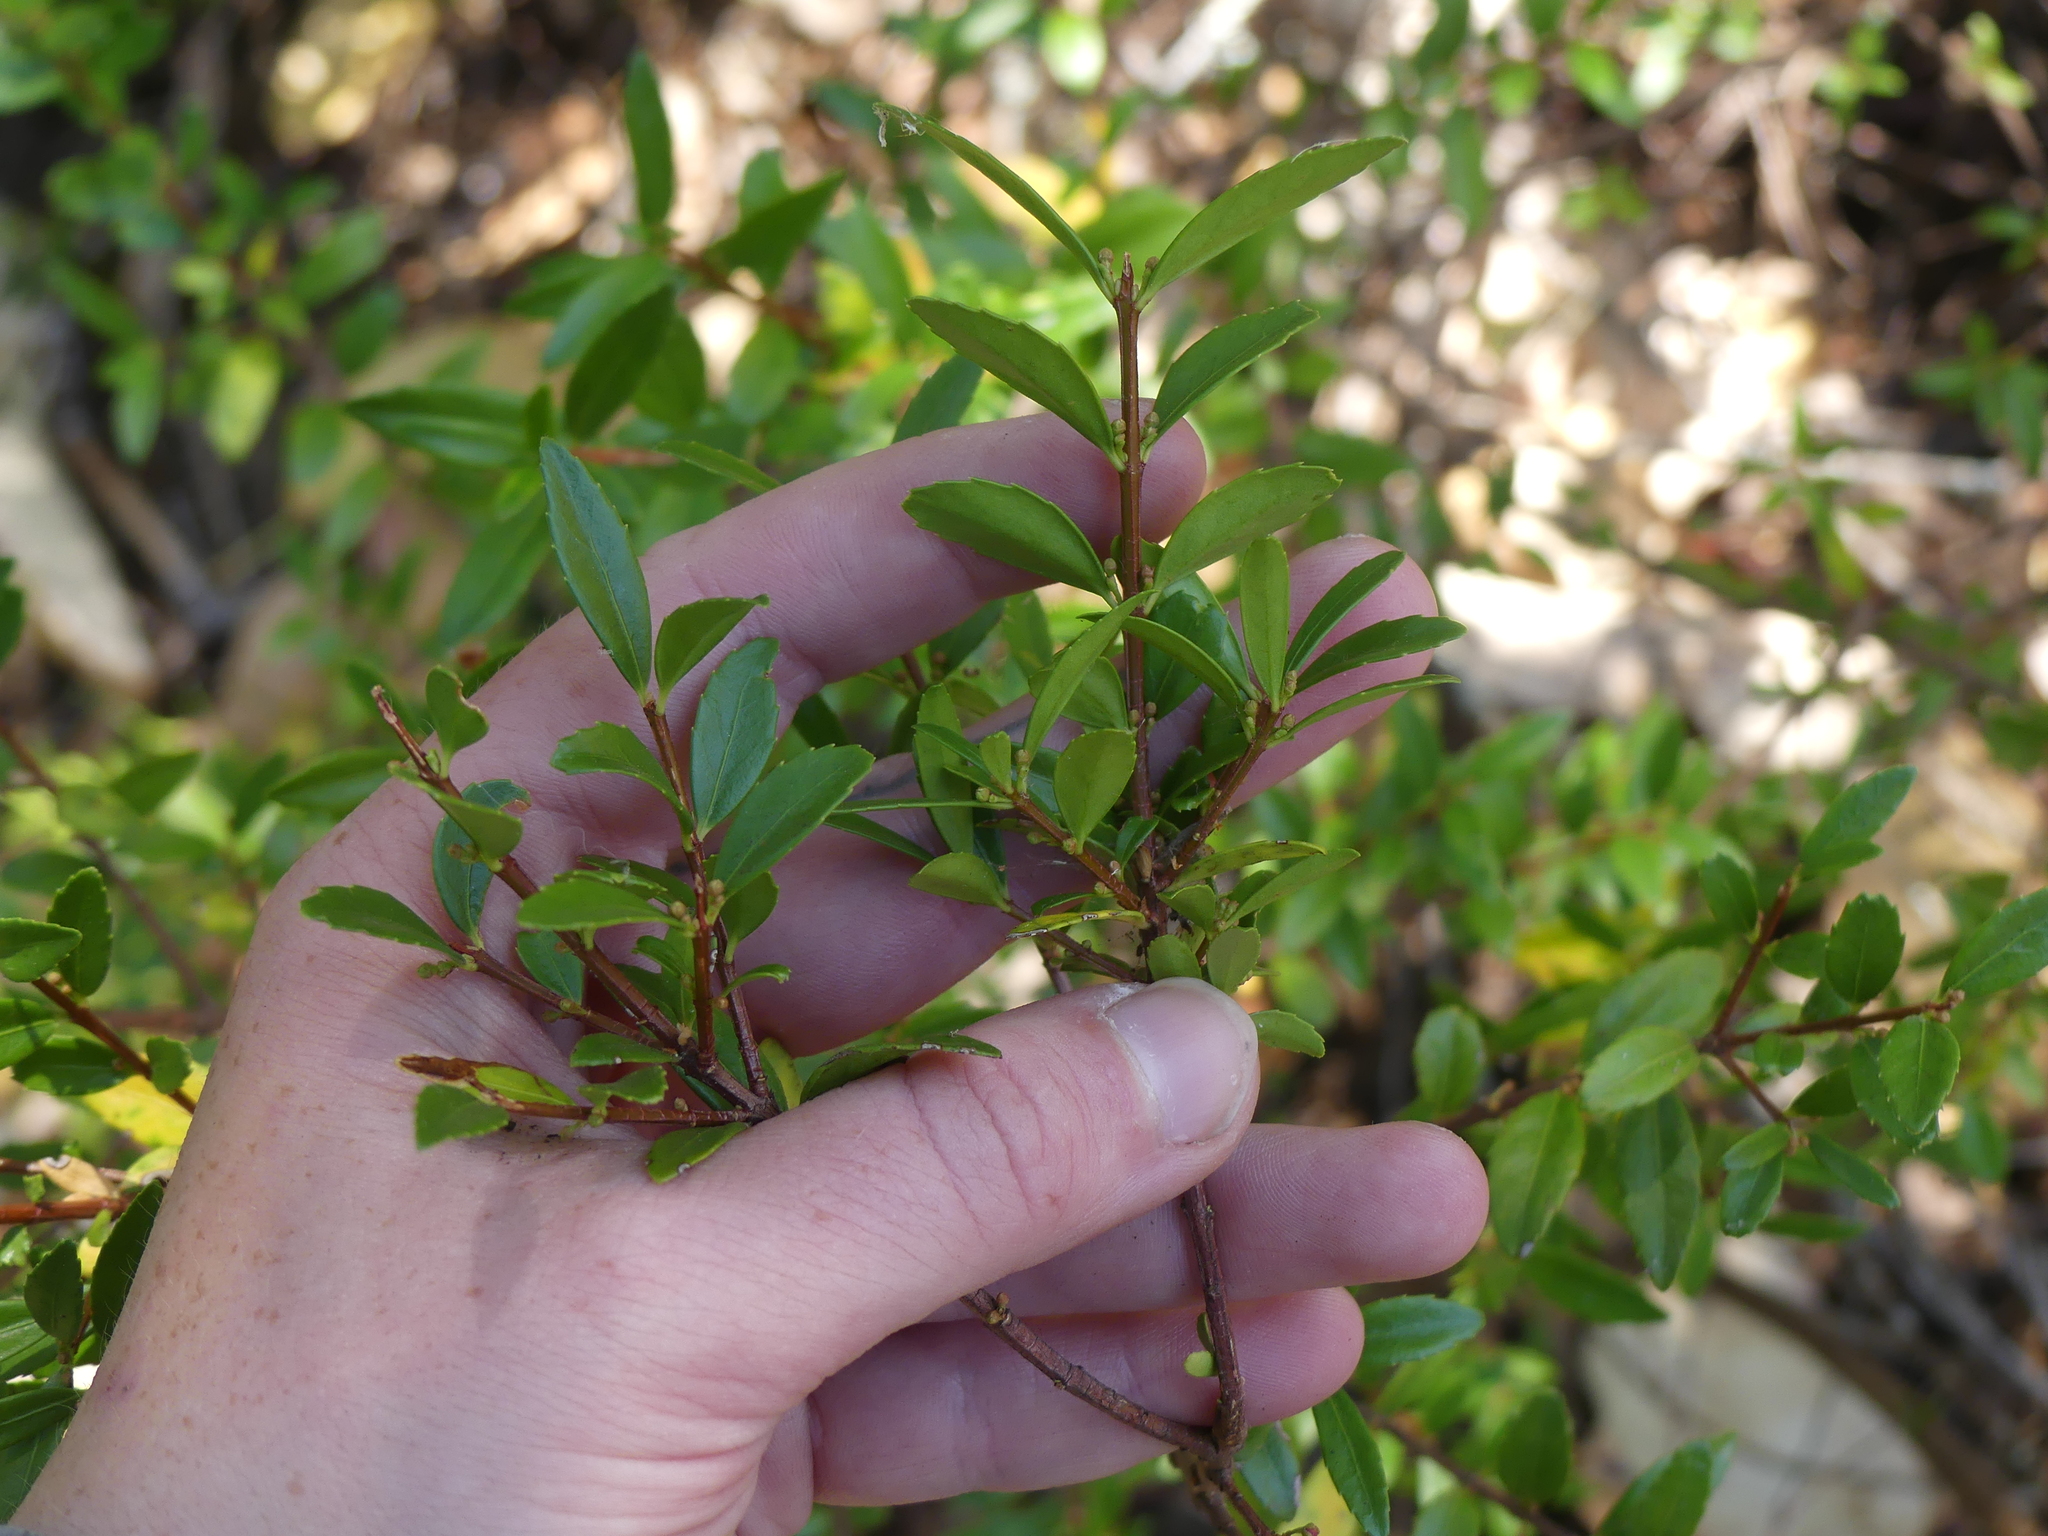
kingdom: Plantae
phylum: Tracheophyta
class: Magnoliopsida
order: Celastrales
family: Celastraceae
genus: Paxistima
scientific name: Paxistima myrsinites
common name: Mountain-lover
